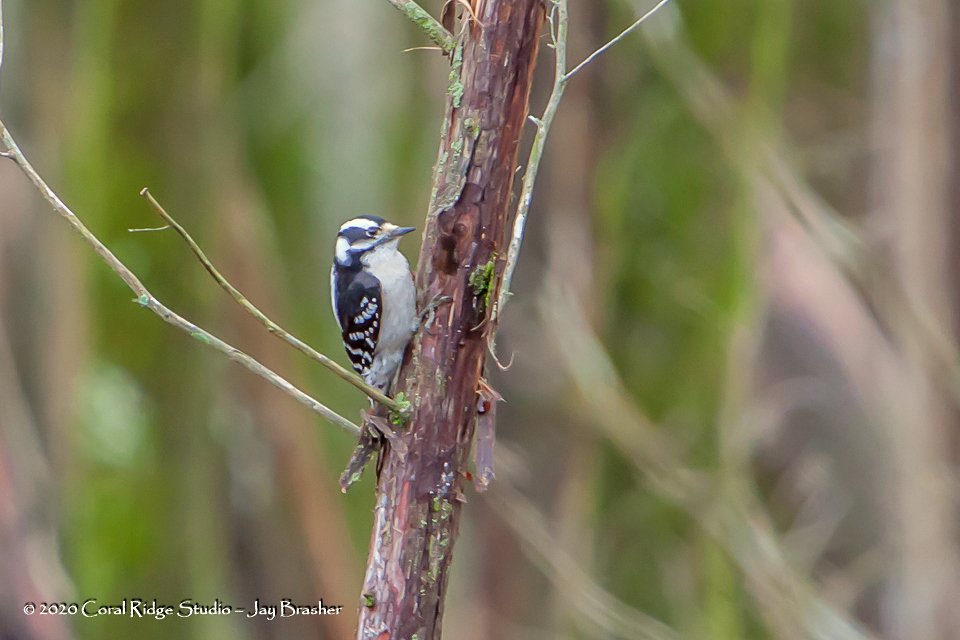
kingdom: Animalia
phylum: Chordata
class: Aves
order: Piciformes
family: Picidae
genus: Dryobates
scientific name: Dryobates pubescens
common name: Downy woodpecker
